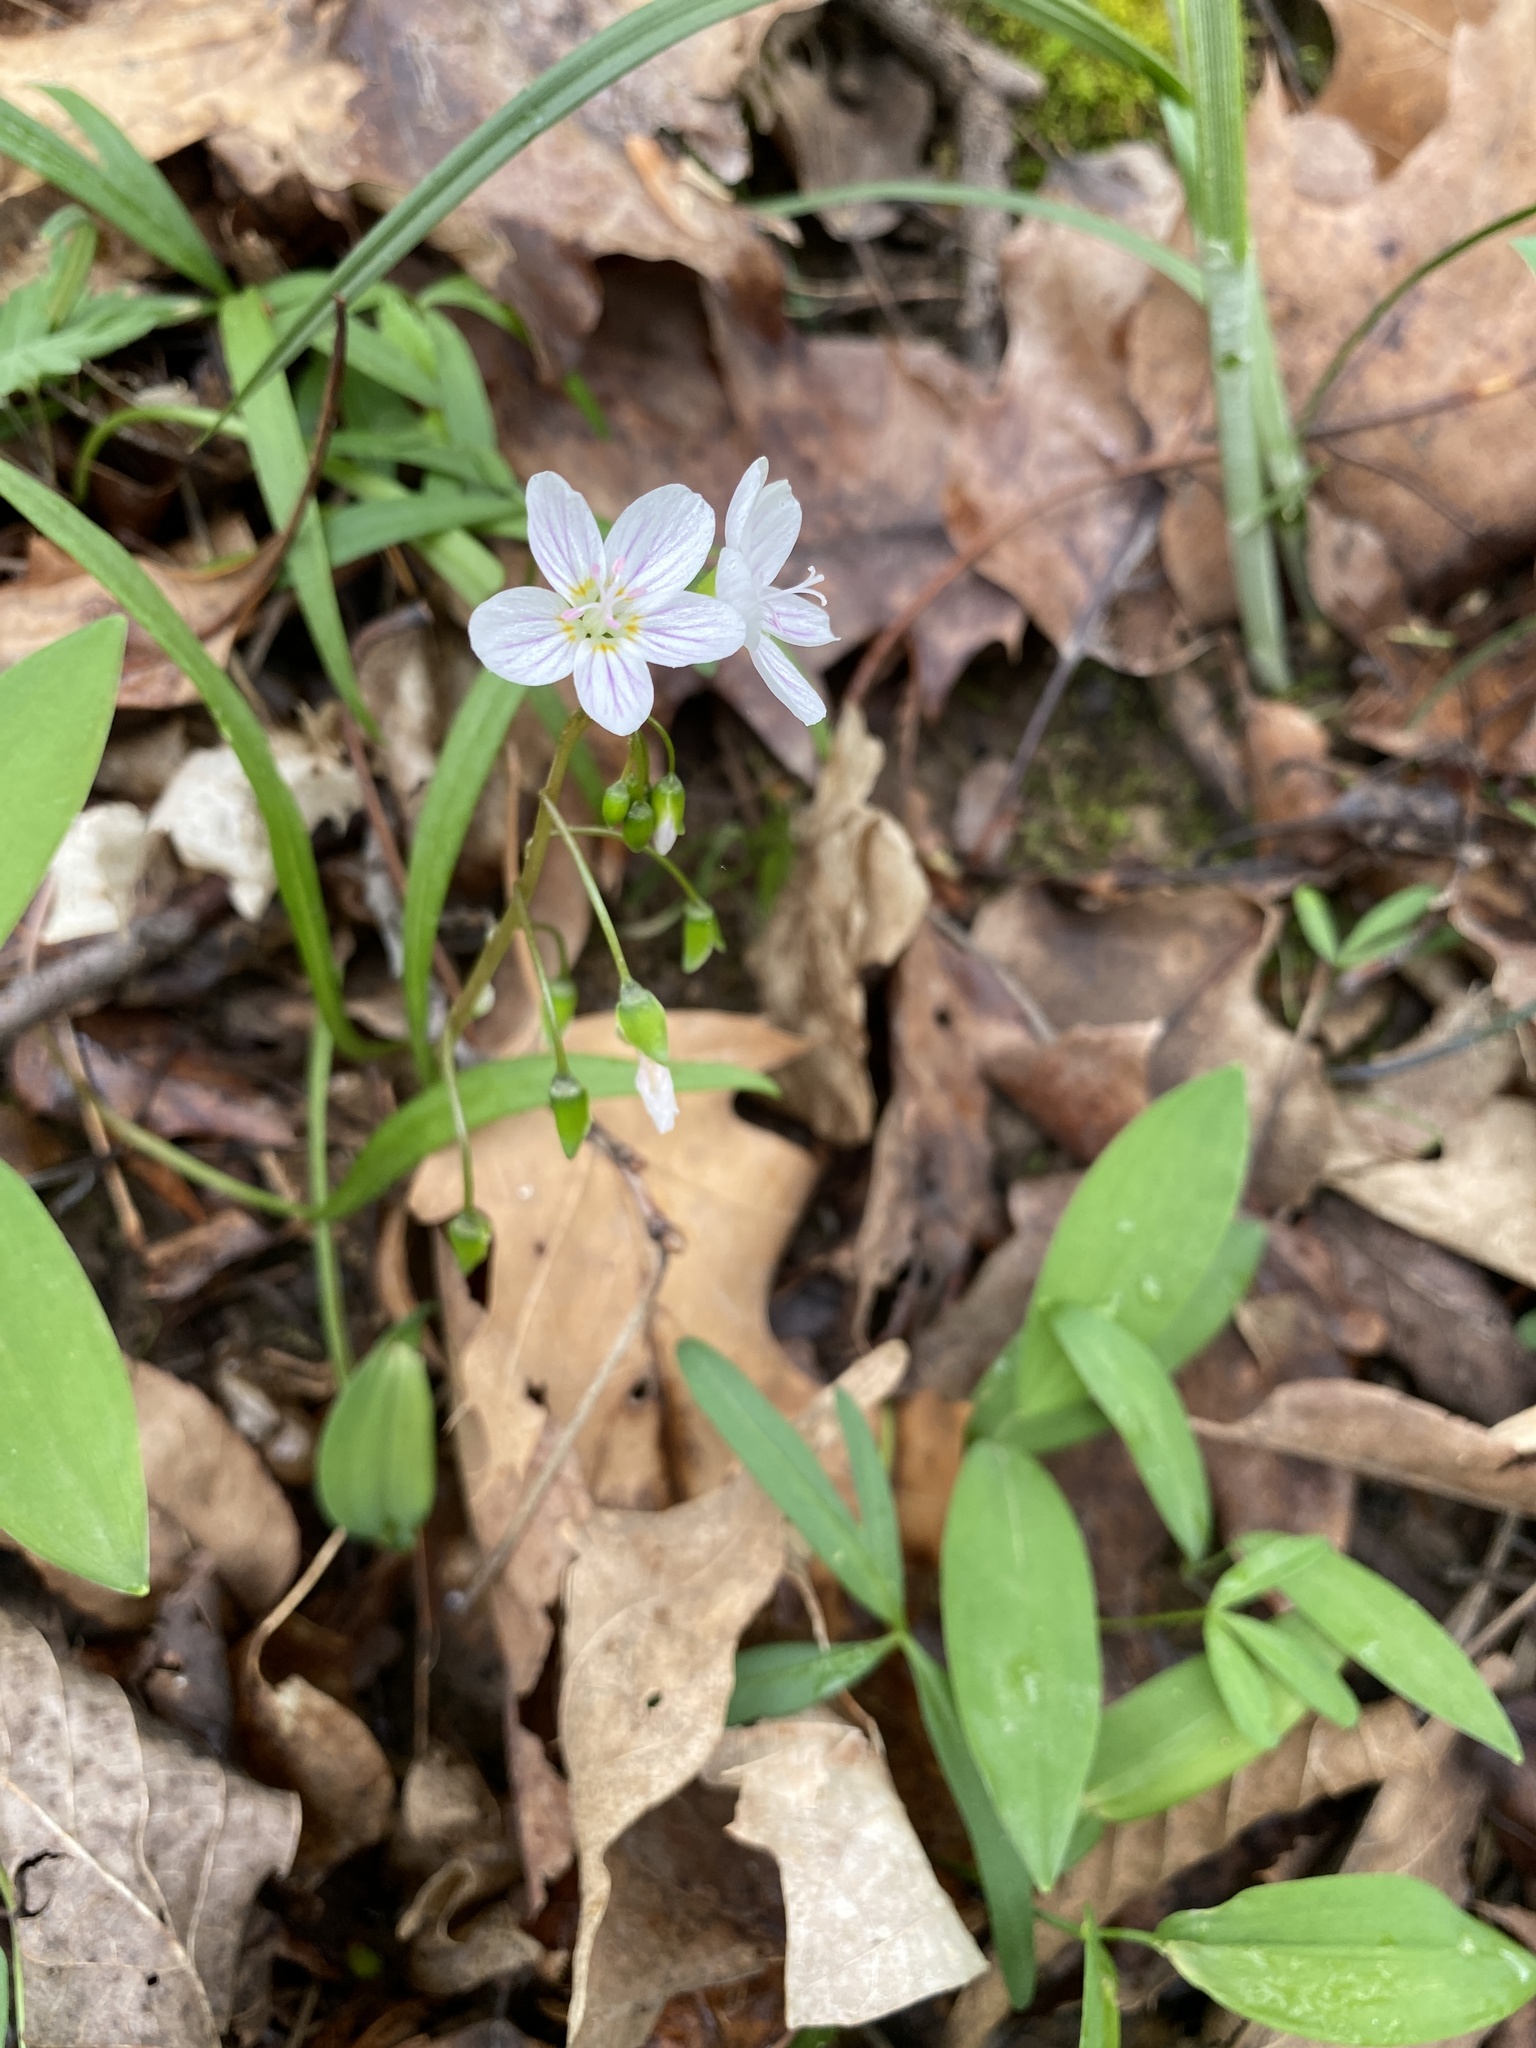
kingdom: Plantae
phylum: Tracheophyta
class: Magnoliopsida
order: Caryophyllales
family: Montiaceae
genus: Claytonia
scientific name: Claytonia virginica
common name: Virginia springbeauty
